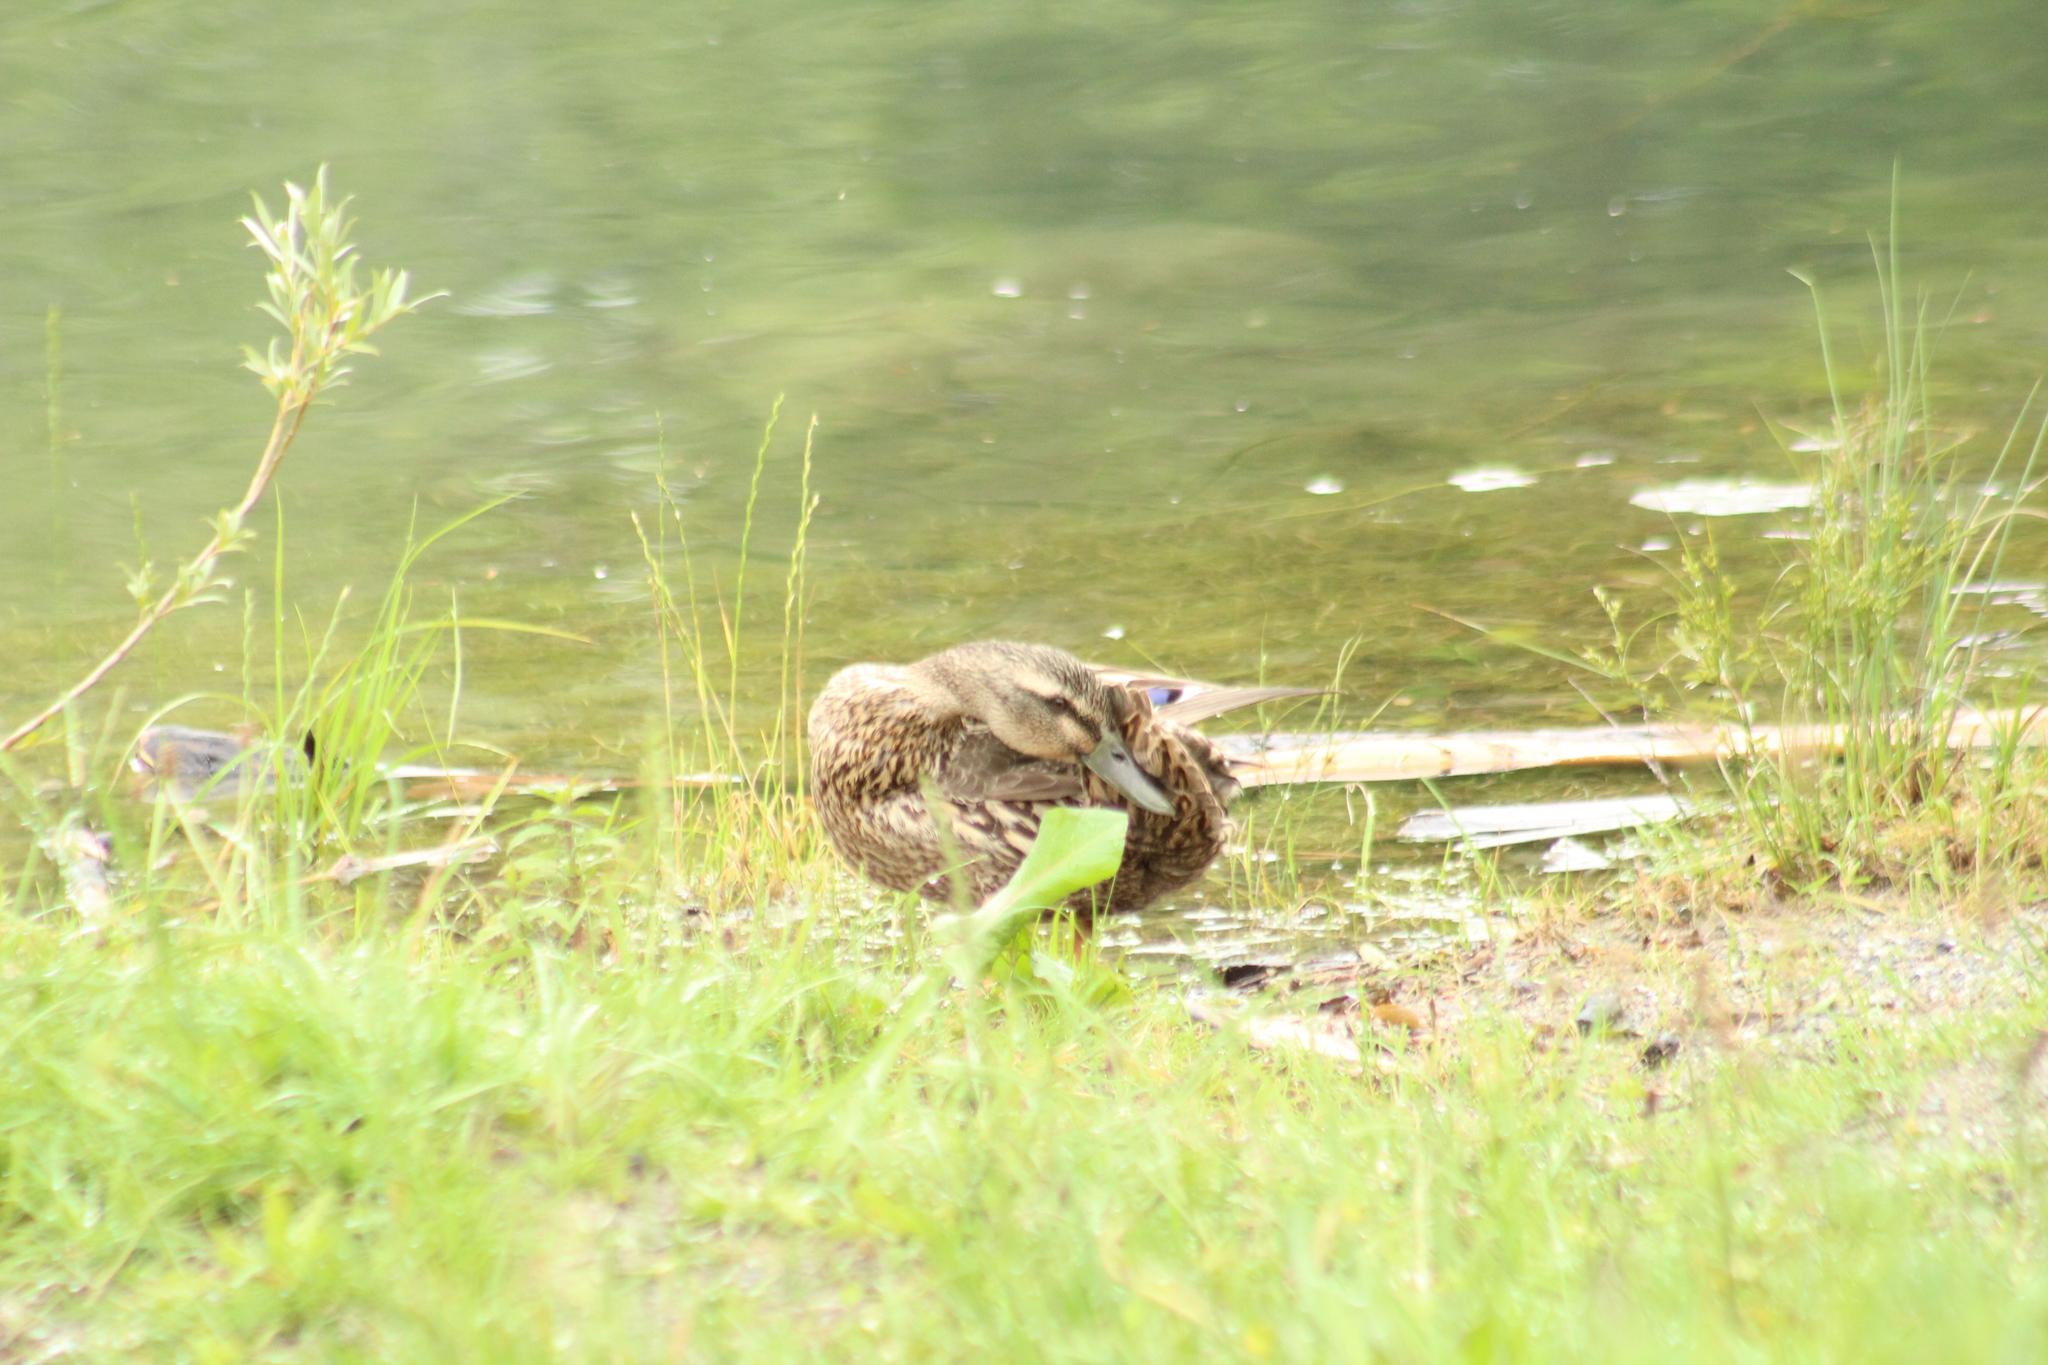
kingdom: Animalia
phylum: Chordata
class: Aves
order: Anseriformes
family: Anatidae
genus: Anas
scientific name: Anas platyrhynchos
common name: Mallard
